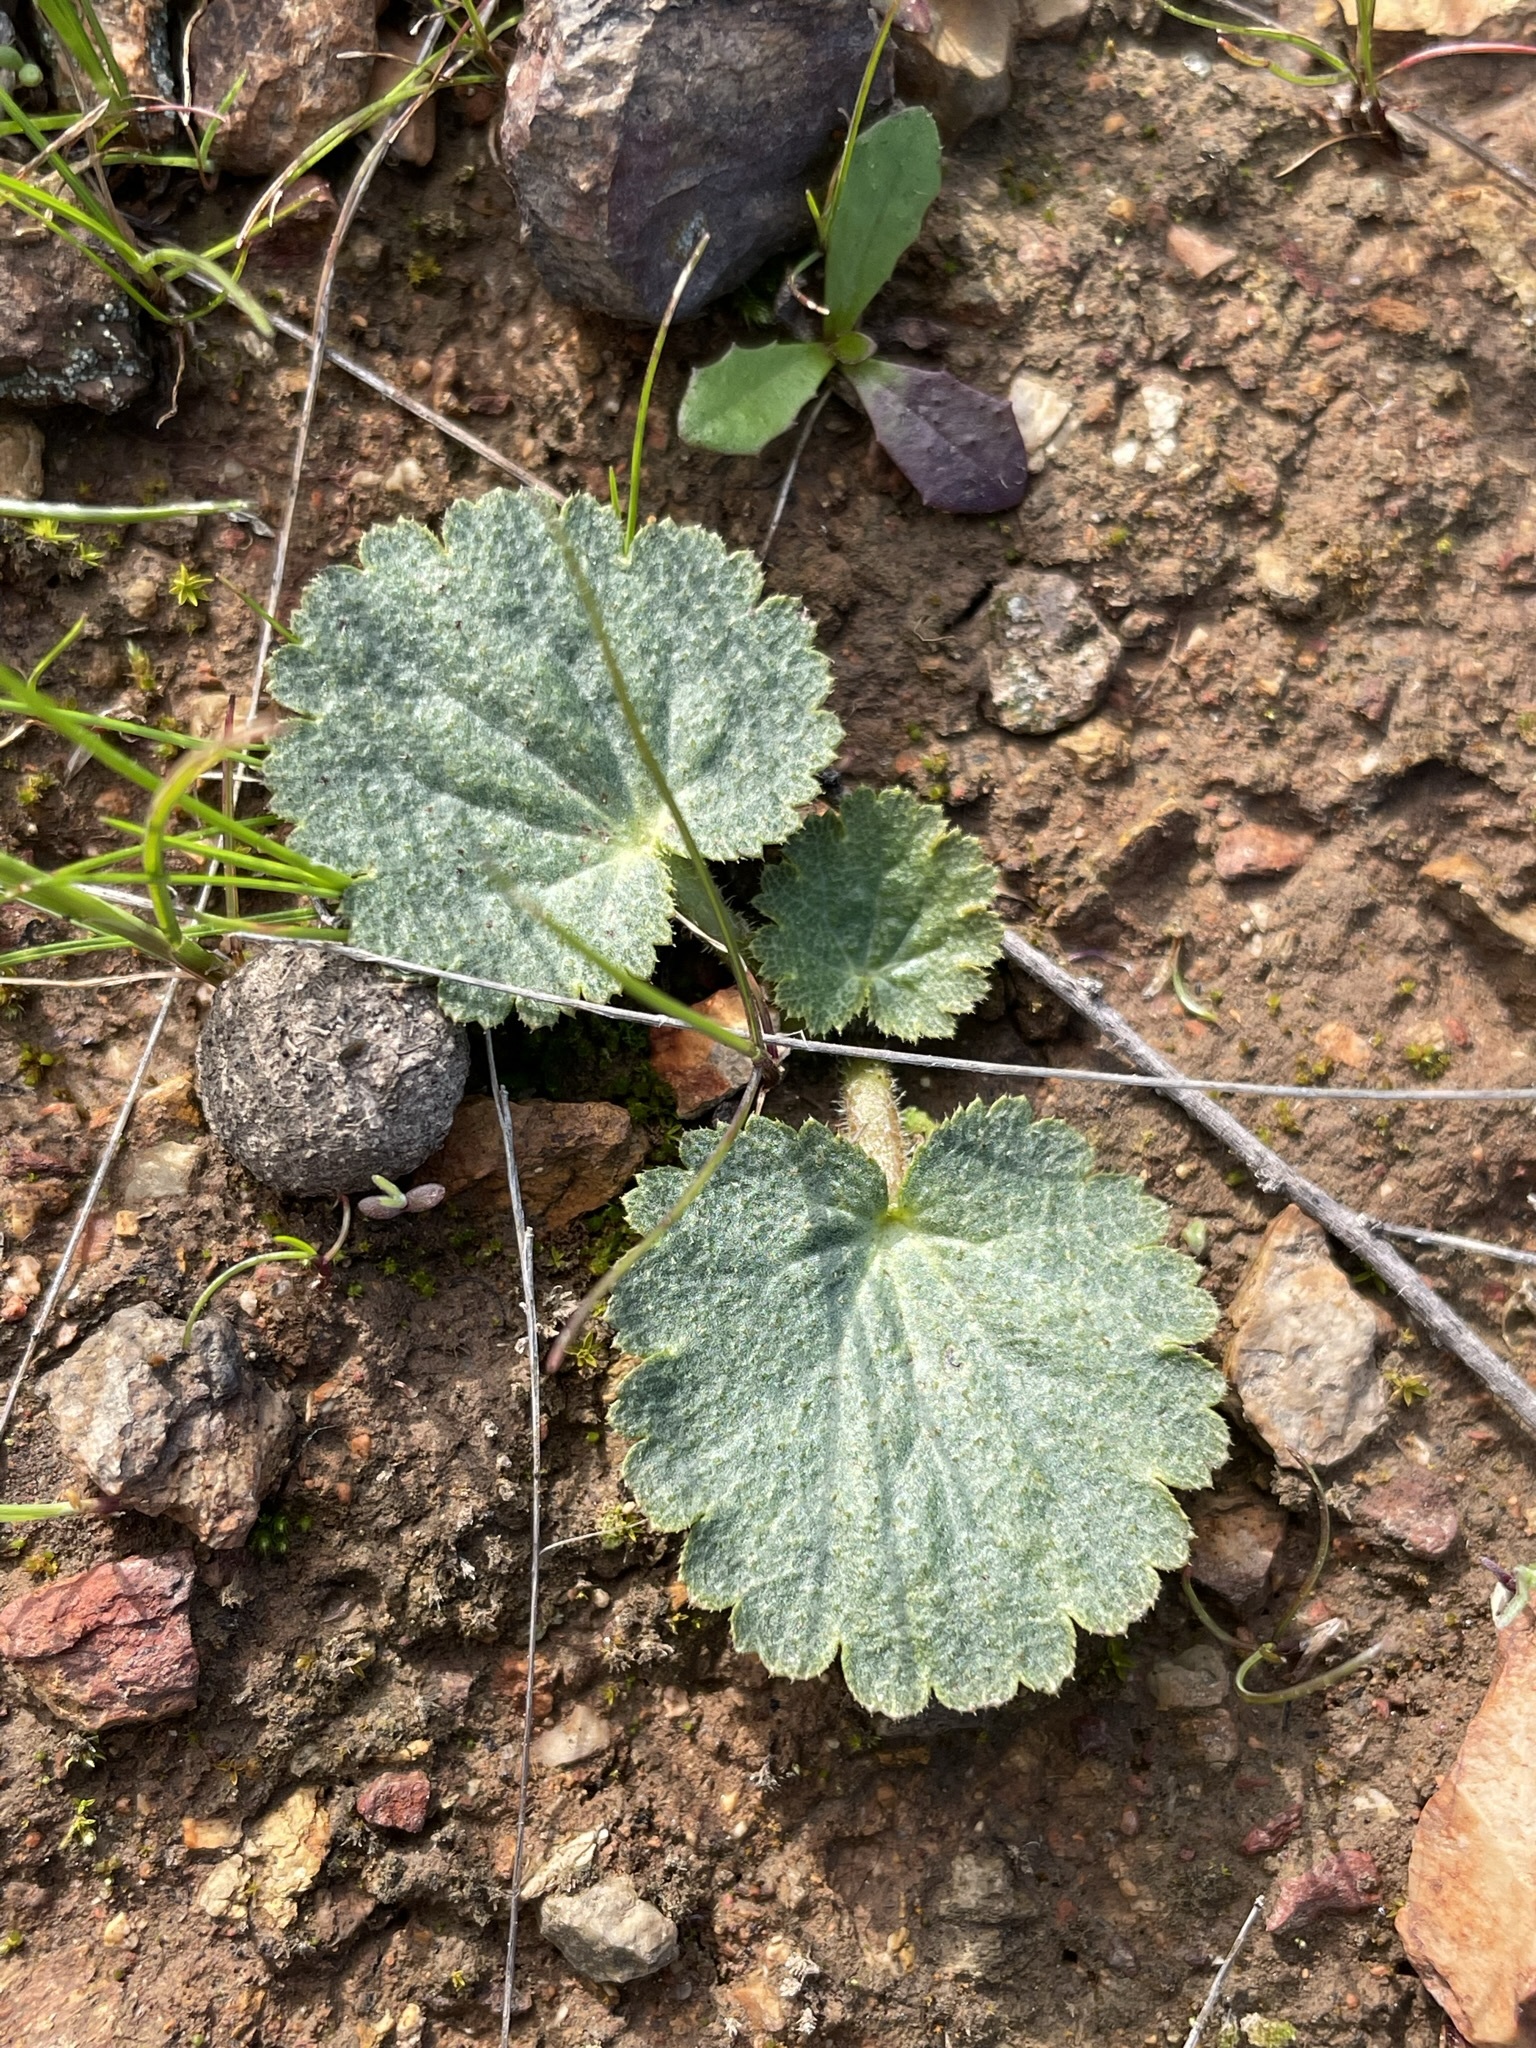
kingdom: Plantae
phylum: Tracheophyta
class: Magnoliopsida
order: Saxifragales
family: Saxifragaceae
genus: Jepsonia
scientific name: Jepsonia parryi
